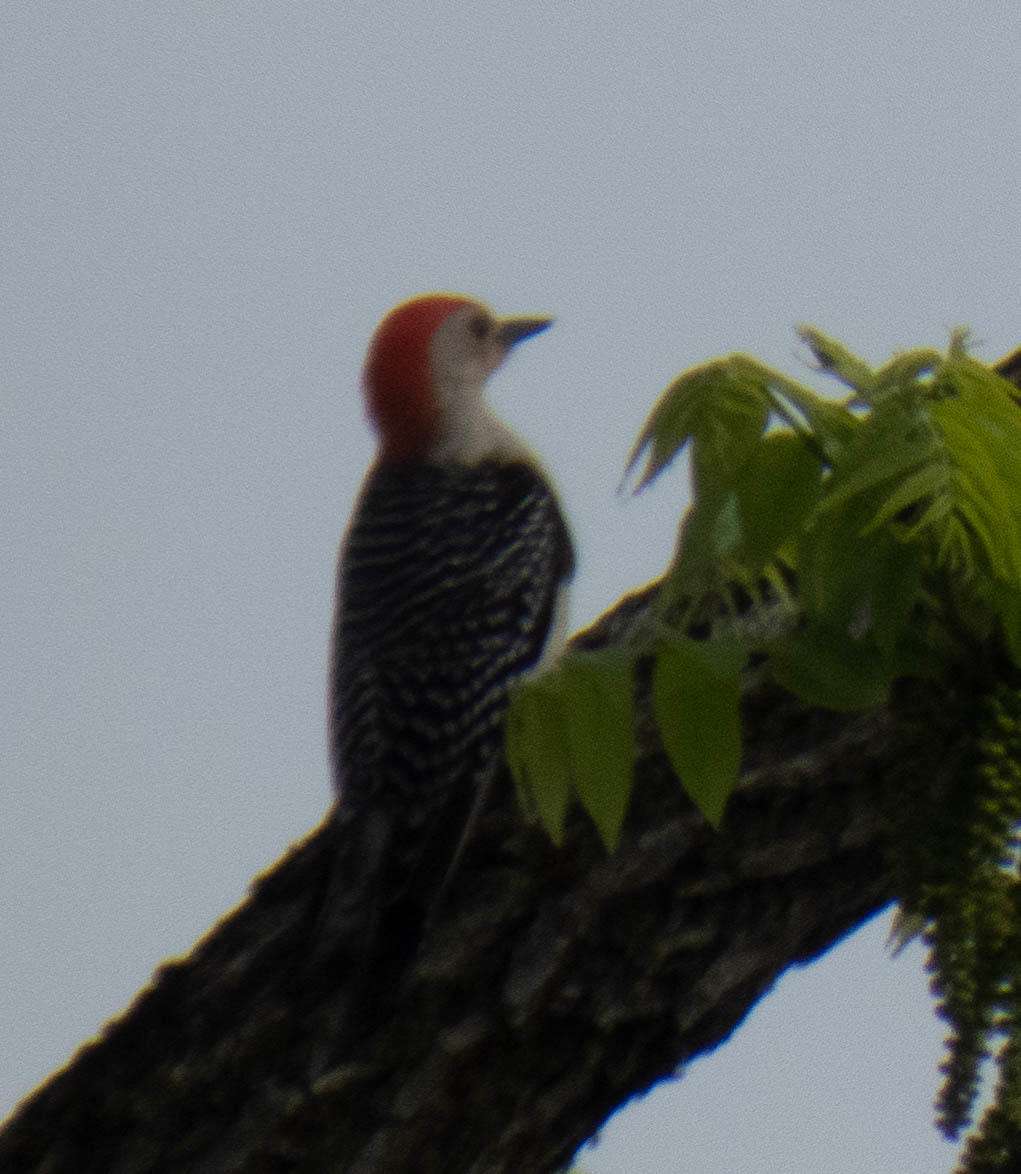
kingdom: Animalia
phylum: Chordata
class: Aves
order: Piciformes
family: Picidae
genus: Melanerpes
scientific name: Melanerpes carolinus
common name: Red-bellied woodpecker
